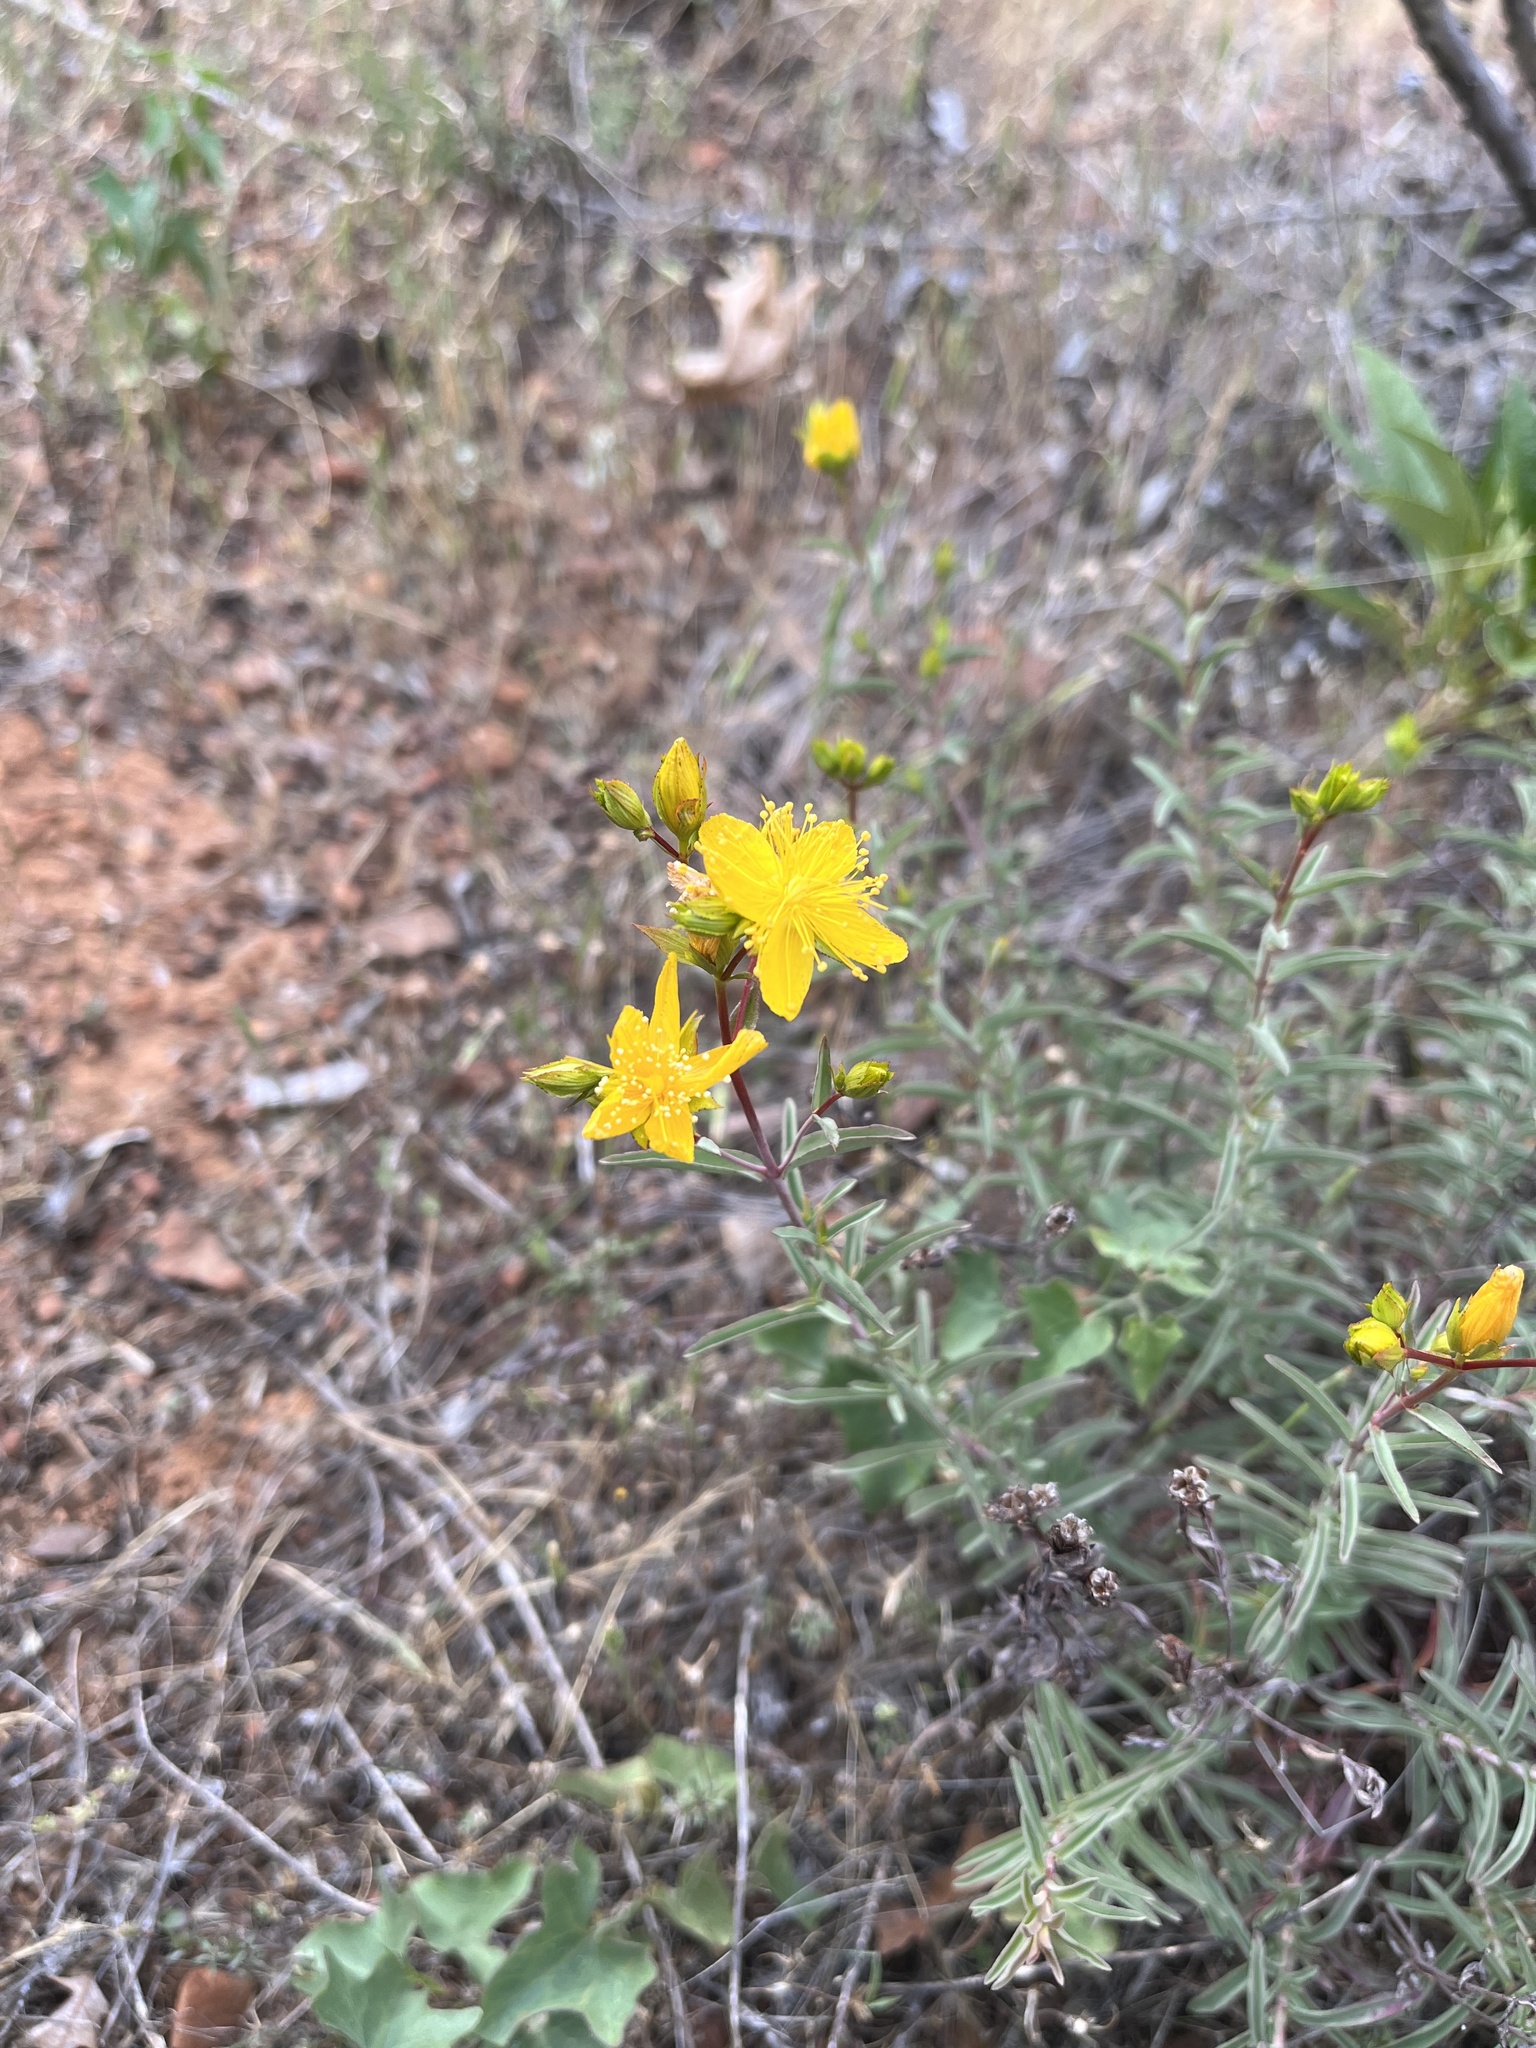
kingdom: Plantae
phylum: Tracheophyta
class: Magnoliopsida
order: Malpighiales
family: Hypericaceae
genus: Hypericum
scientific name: Hypericum concinnum
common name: Gold-wire
